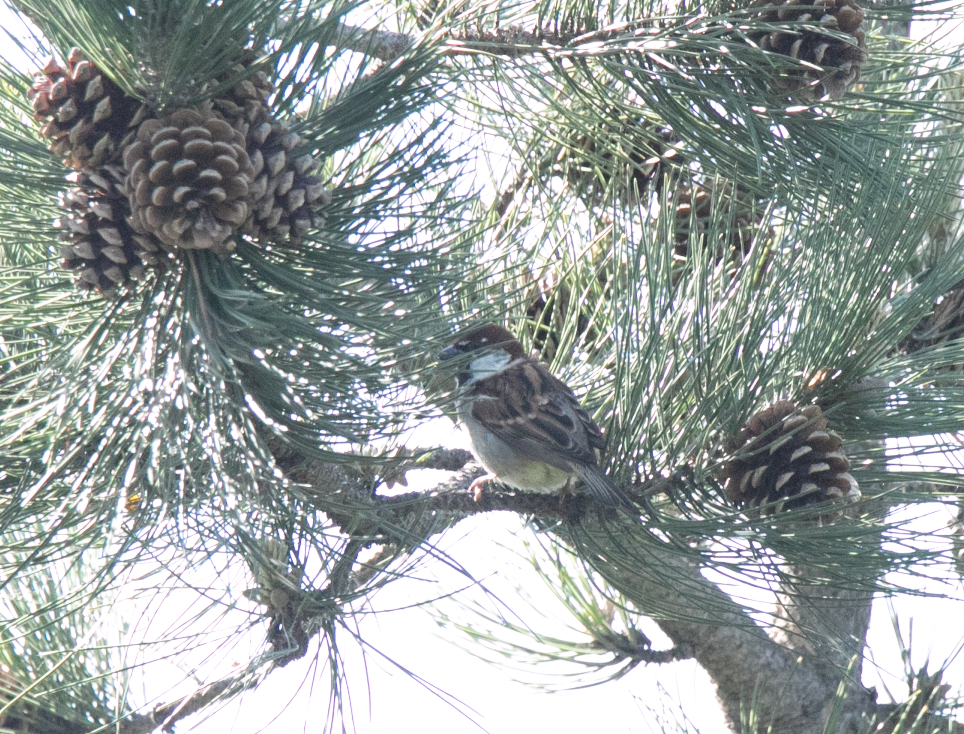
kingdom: Animalia
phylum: Chordata
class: Aves
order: Passeriformes
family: Passeridae
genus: Passer
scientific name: Passer italiae
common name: Italian sparrow
